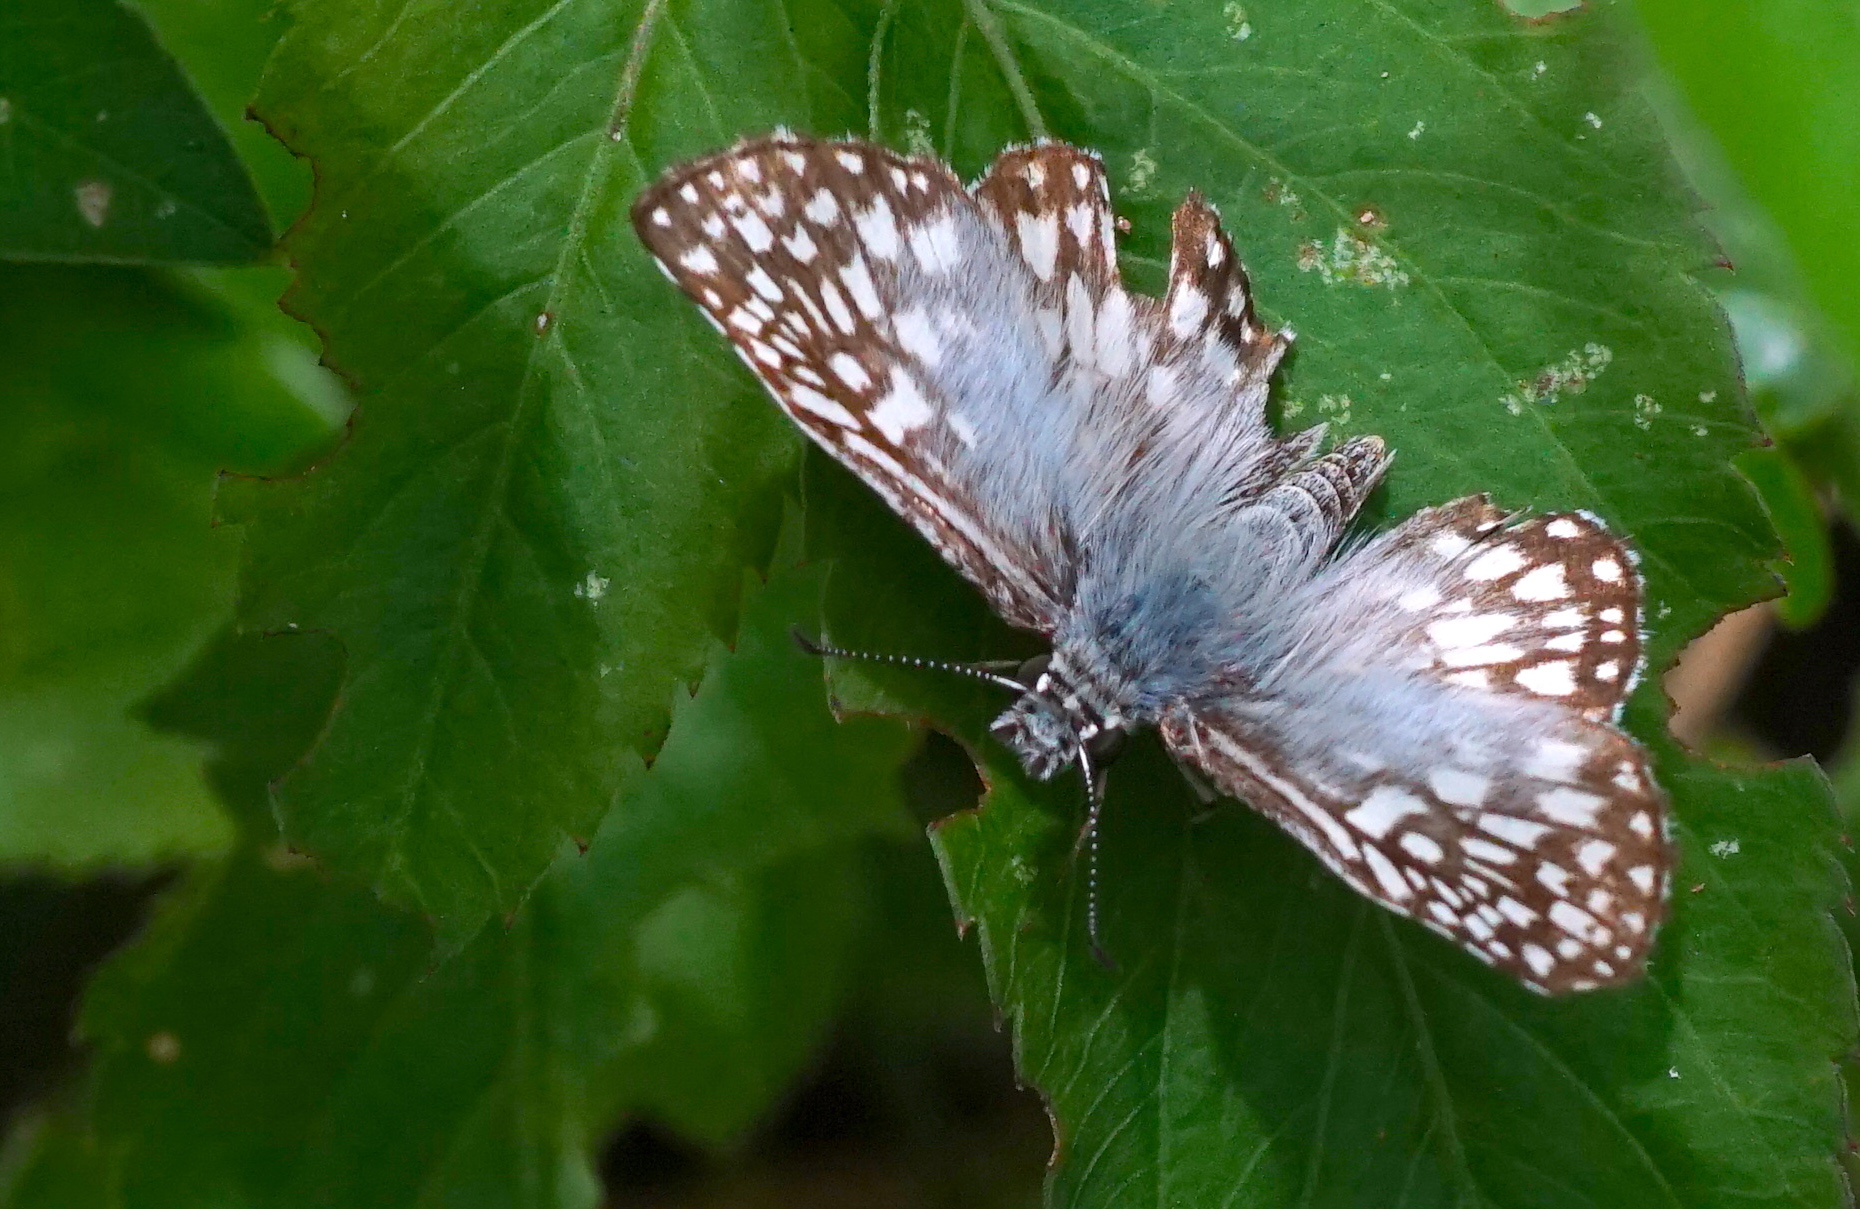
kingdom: Animalia
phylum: Arthropoda
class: Insecta
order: Lepidoptera
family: Hesperiidae
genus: Pyrgus
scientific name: Pyrgus oileus
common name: Tropical checkered-skipper
